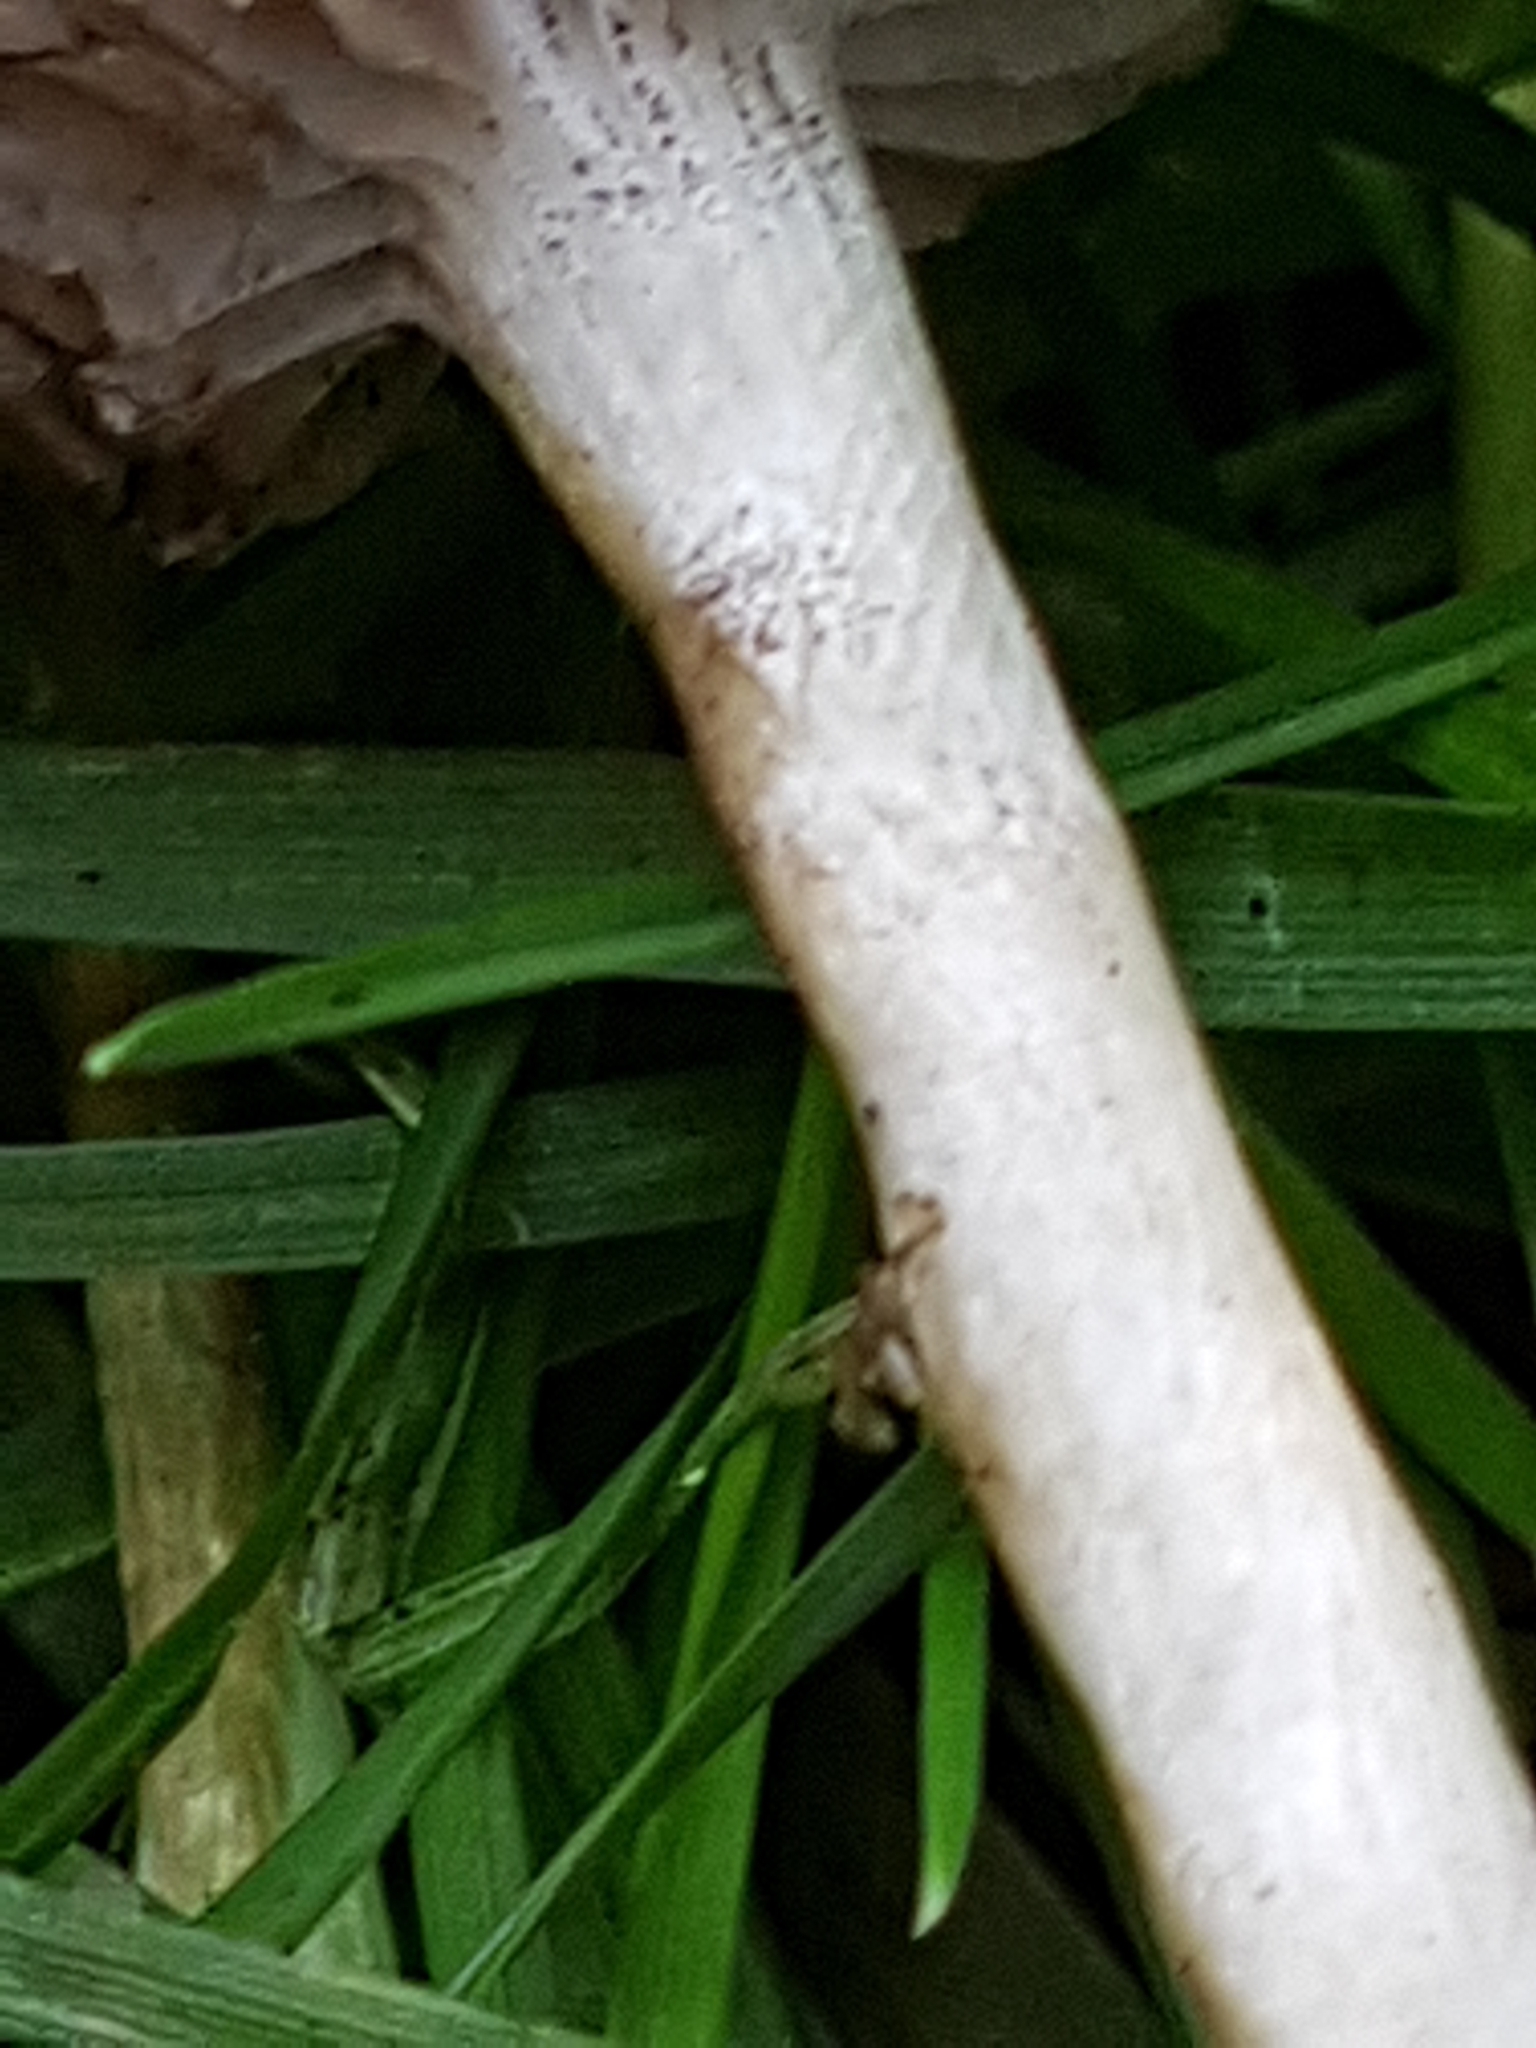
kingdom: Fungi
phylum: Basidiomycota
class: Agaricomycetes
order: Boletales
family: Boletaceae
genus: Leccinum
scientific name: Leccinum scabrum
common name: Blushing bolete
